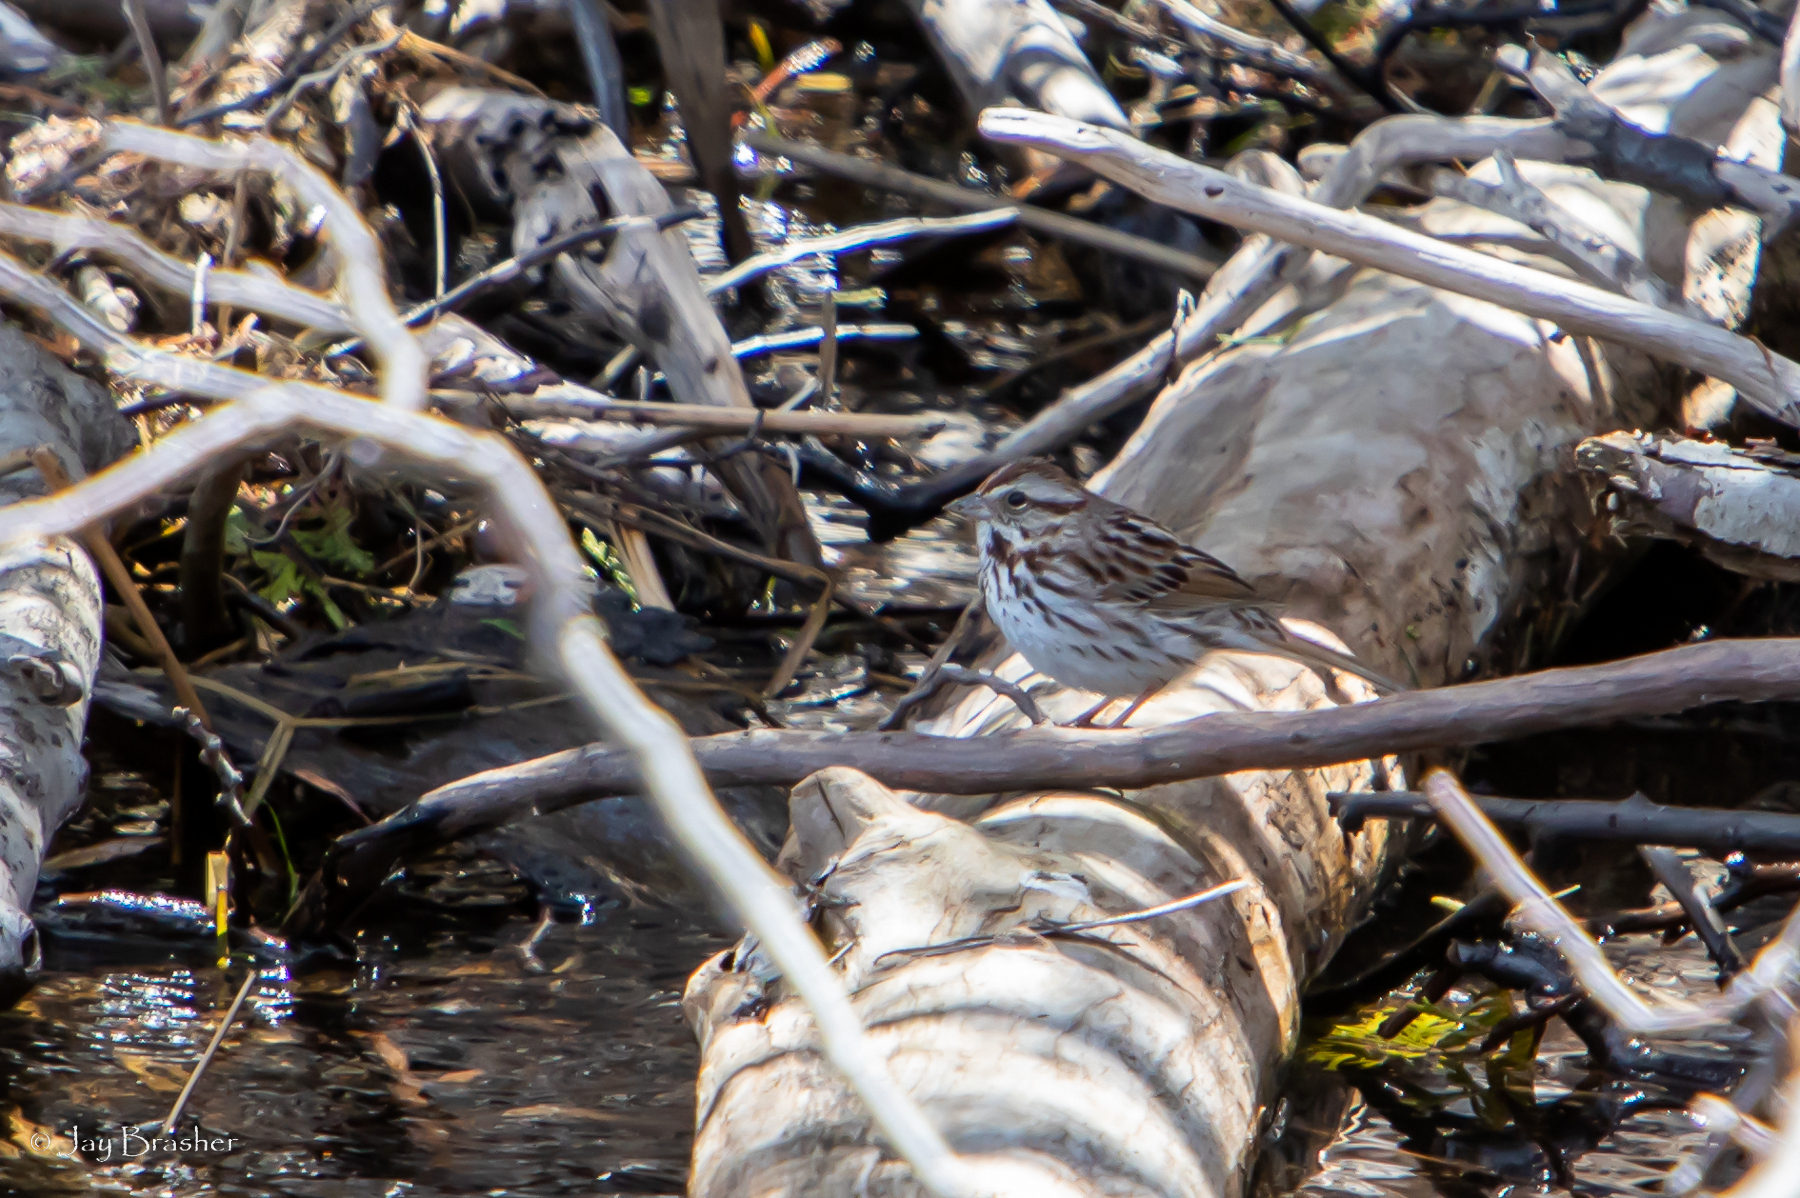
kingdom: Animalia
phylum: Chordata
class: Aves
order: Passeriformes
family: Passerellidae
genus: Melospiza
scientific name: Melospiza melodia
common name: Song sparrow
